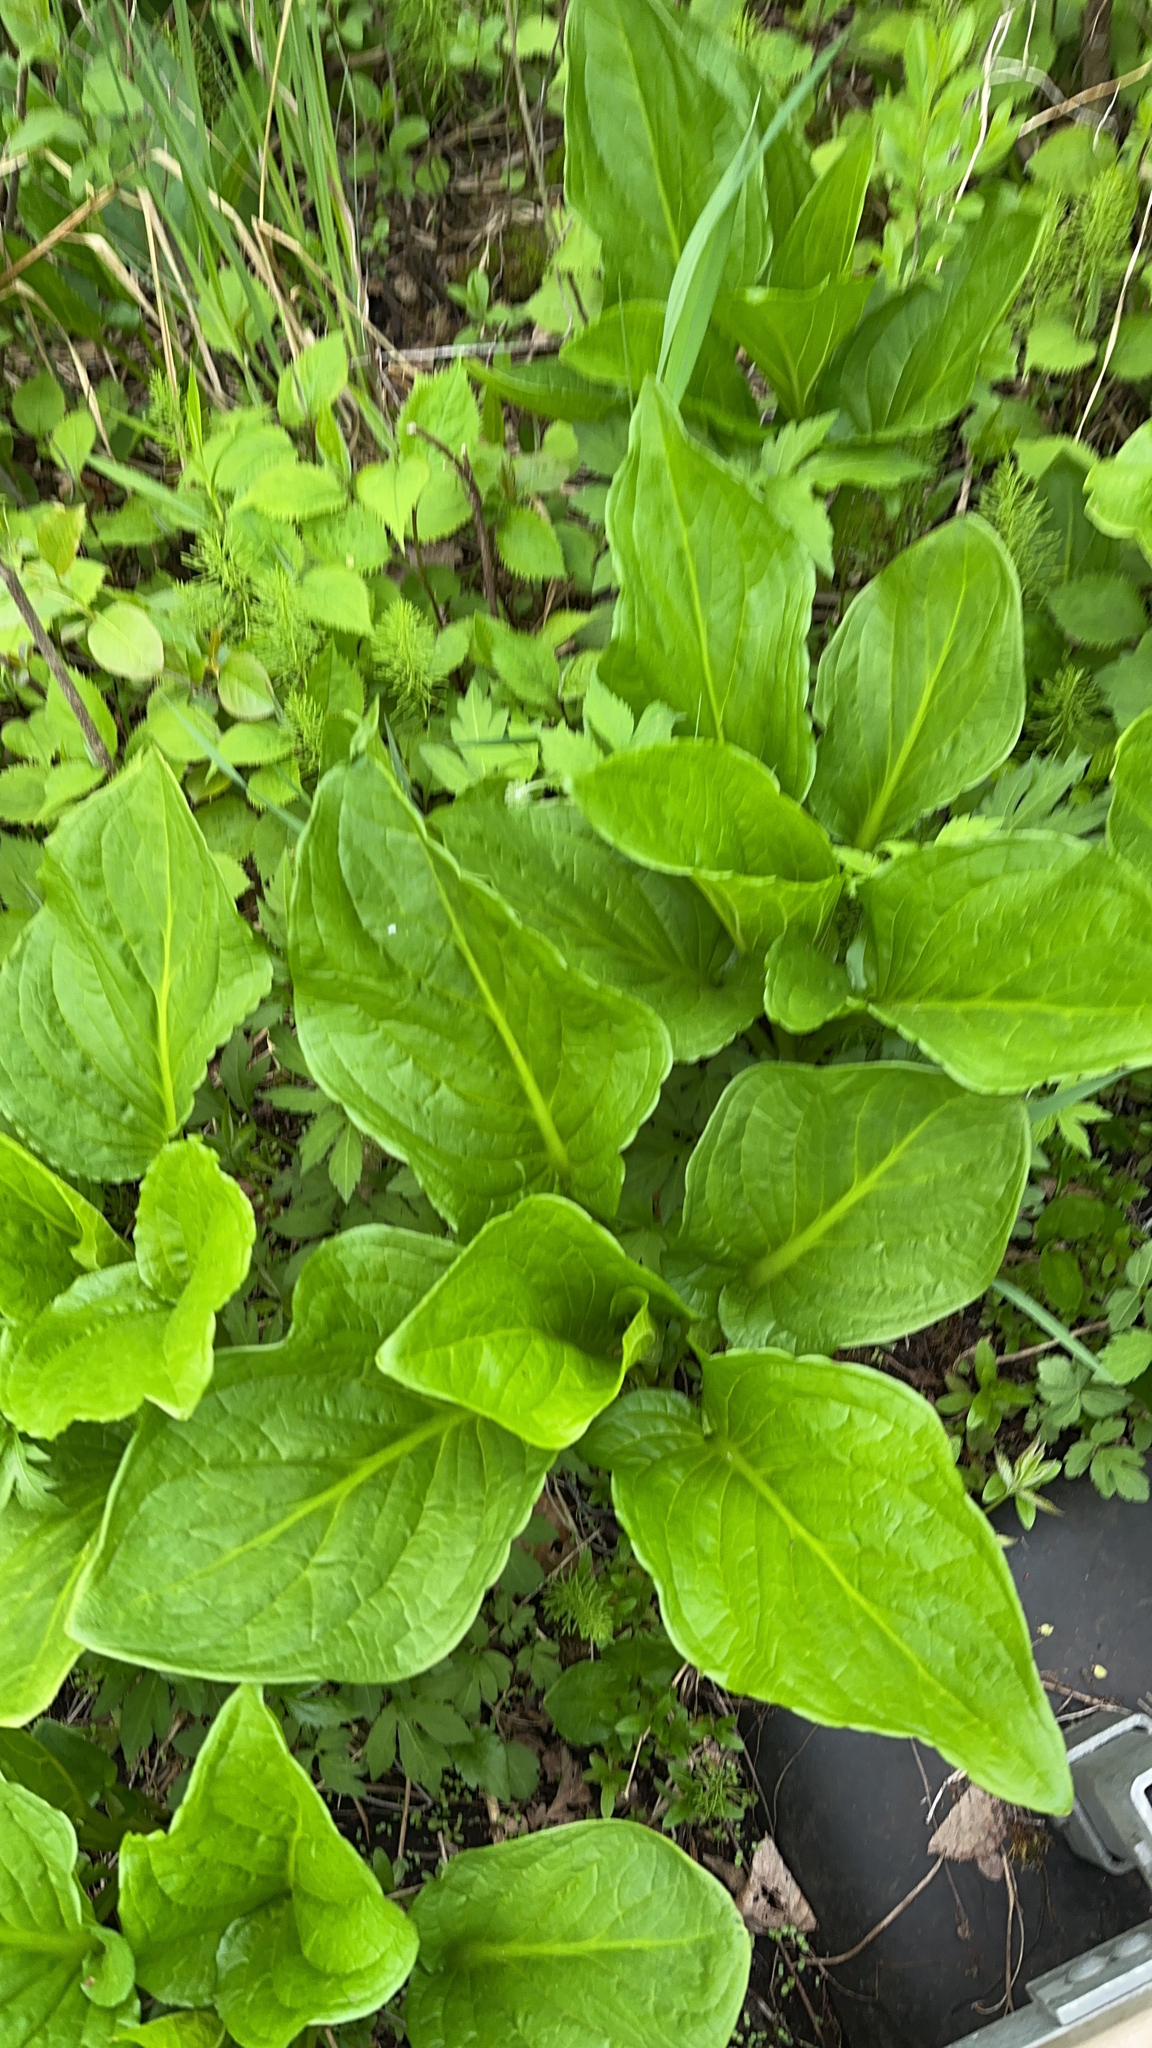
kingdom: Plantae
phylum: Tracheophyta
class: Liliopsida
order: Alismatales
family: Araceae
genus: Symplocarpus
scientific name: Symplocarpus foetidus
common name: Eastern skunk cabbage
